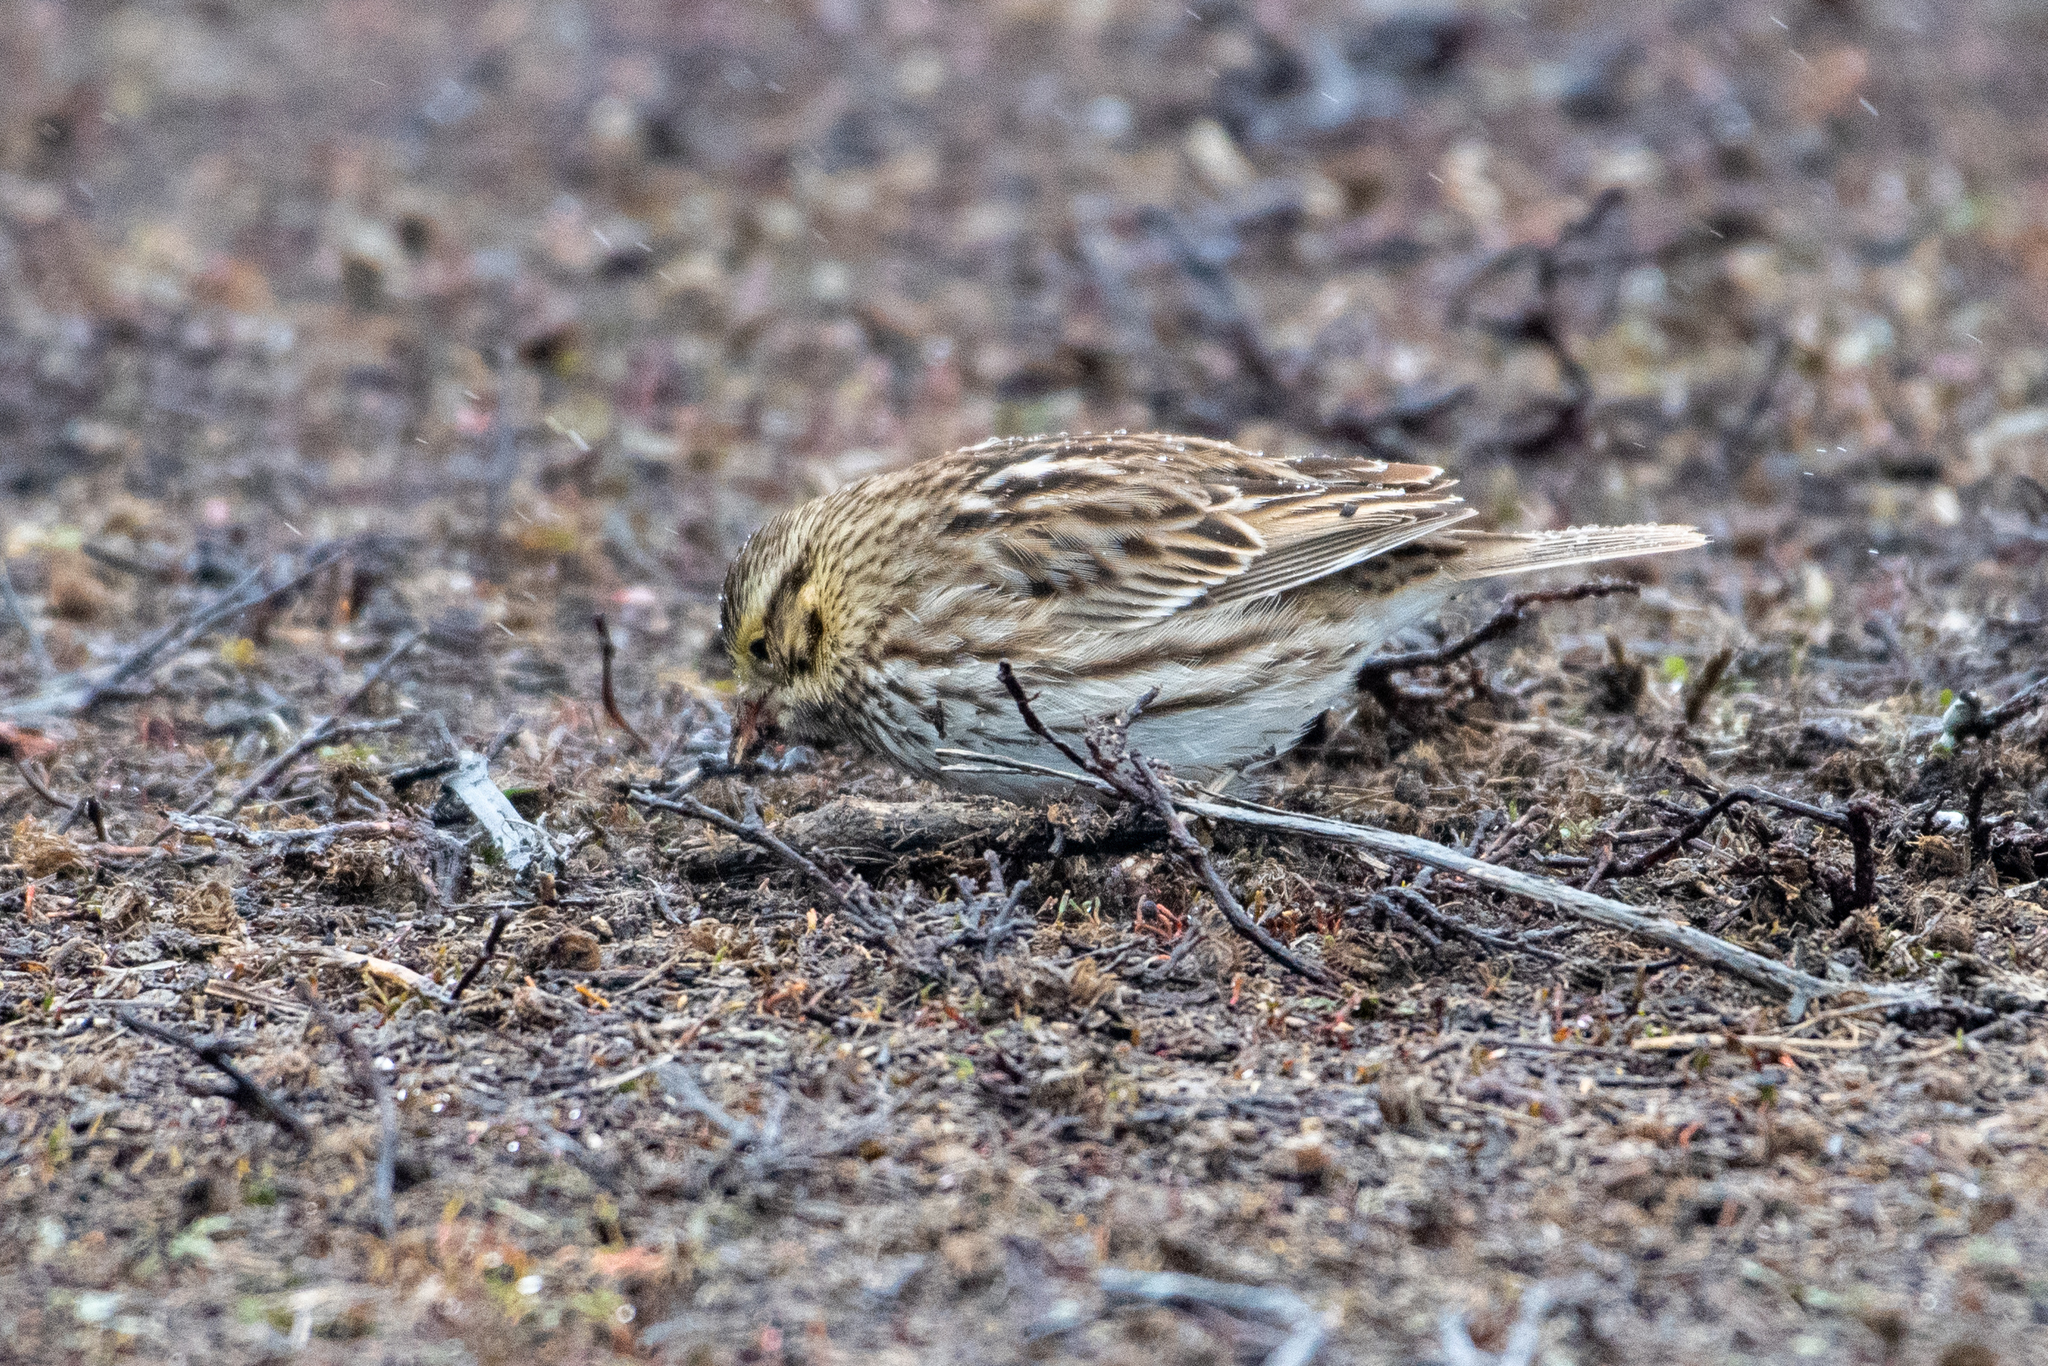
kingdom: Animalia
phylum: Chordata
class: Aves
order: Passeriformes
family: Passerellidae
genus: Passerculus
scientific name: Passerculus sandwichensis
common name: Savannah sparrow
